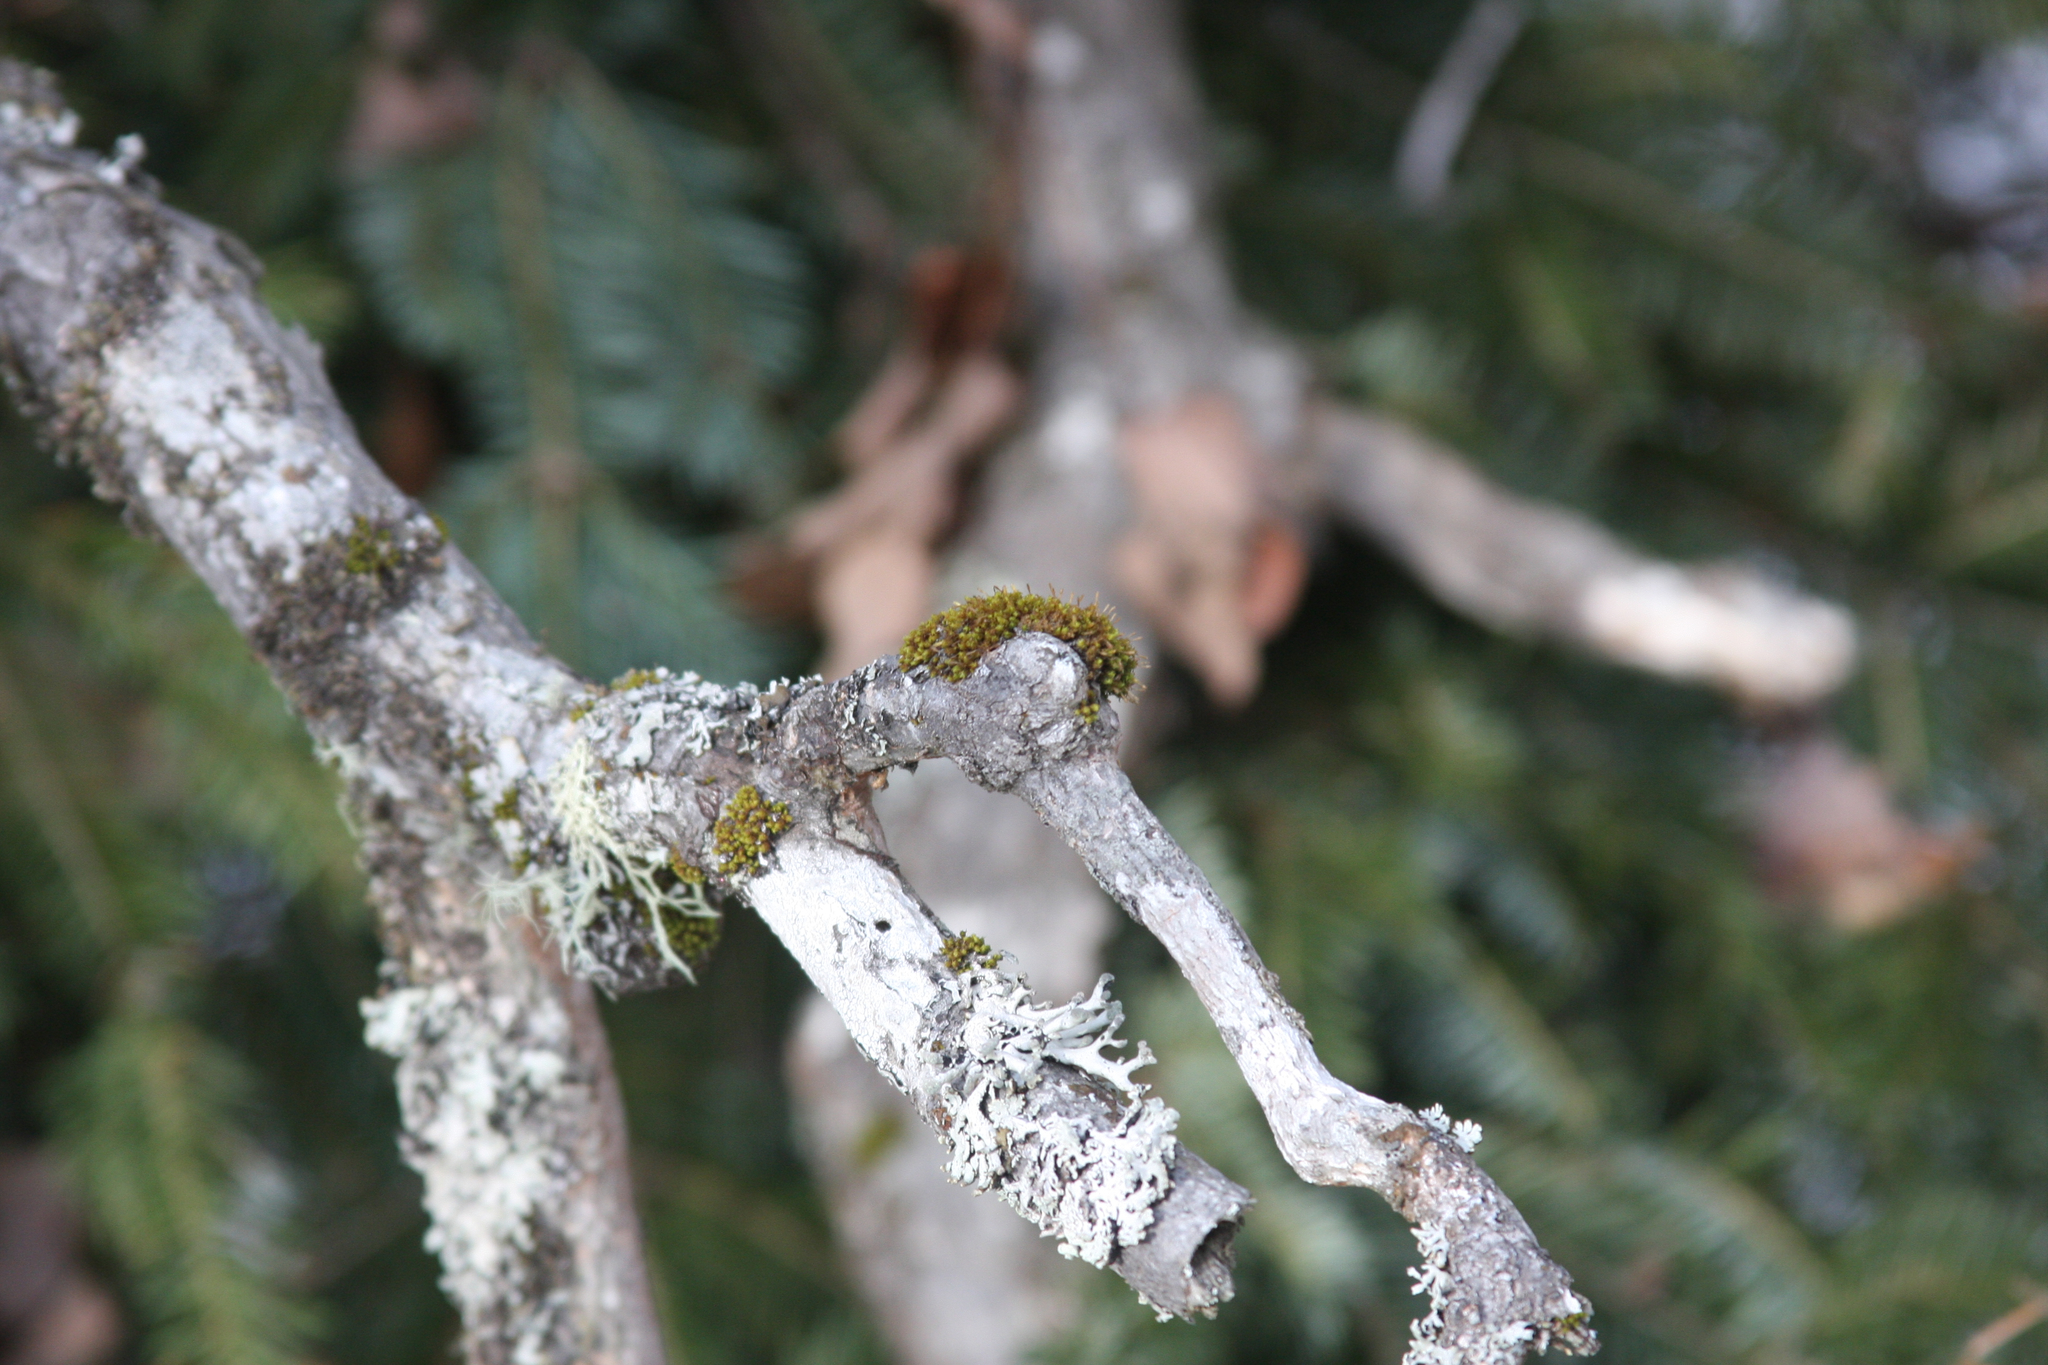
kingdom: Plantae
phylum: Bryophyta
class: Bryopsida
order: Orthotrichales
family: Orthotrichaceae
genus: Ulota
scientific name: Ulota crispa
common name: Crisped pincushion moss
